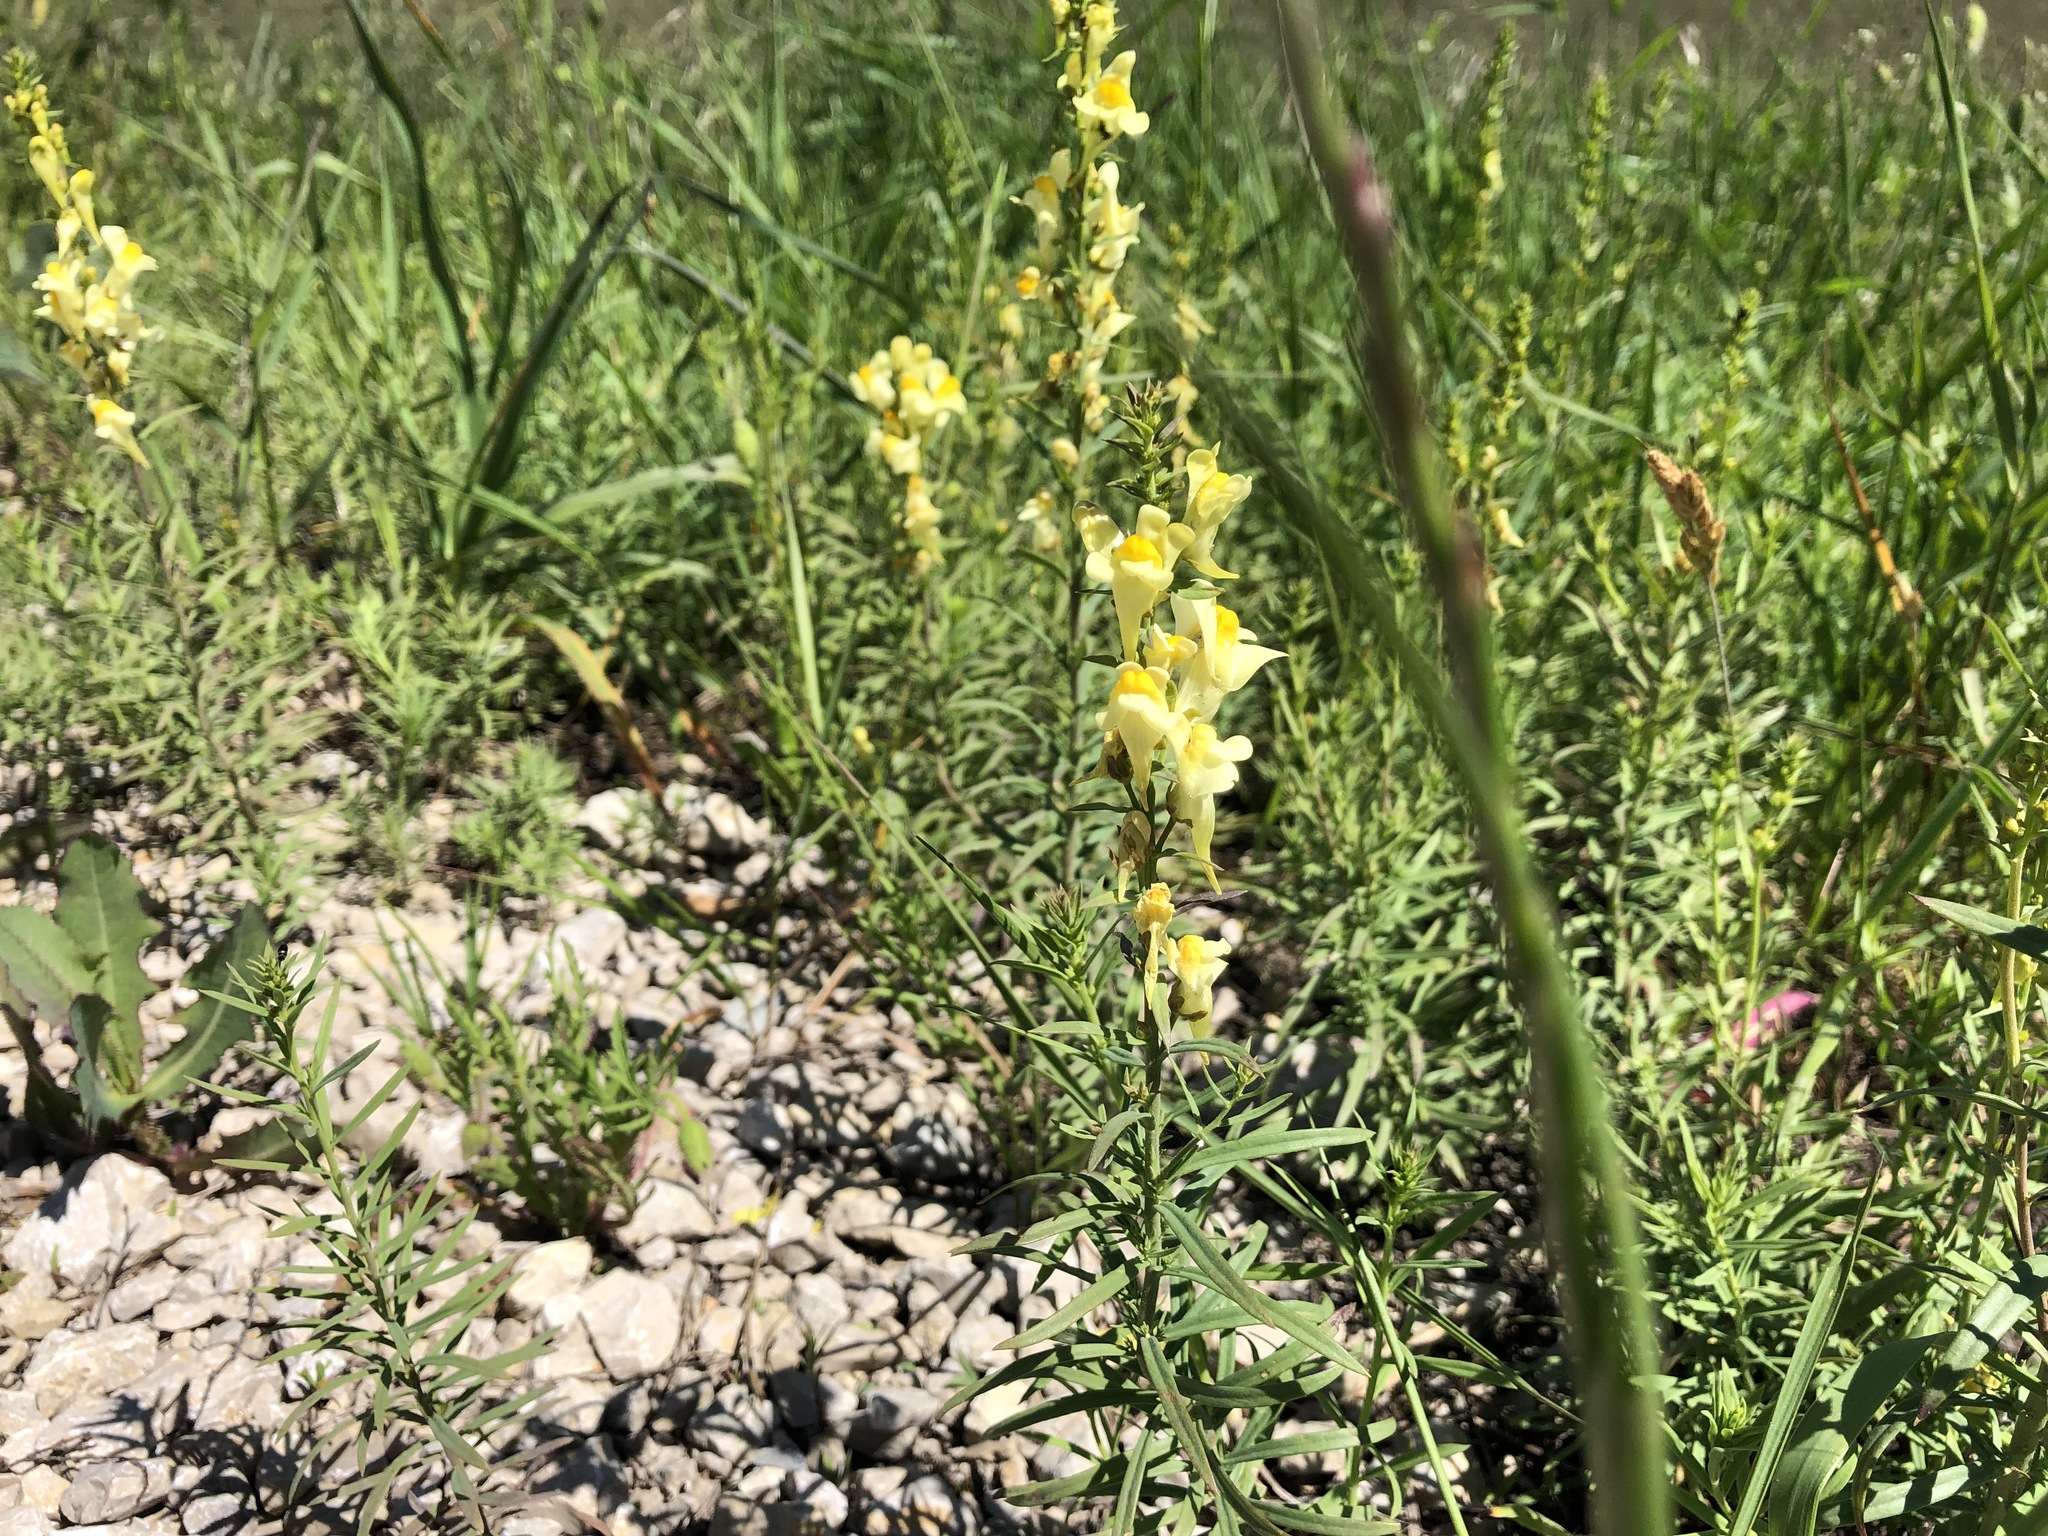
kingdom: Plantae
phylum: Tracheophyta
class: Magnoliopsida
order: Lamiales
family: Plantaginaceae
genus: Linaria
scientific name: Linaria vulgaris
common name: Butter and eggs
